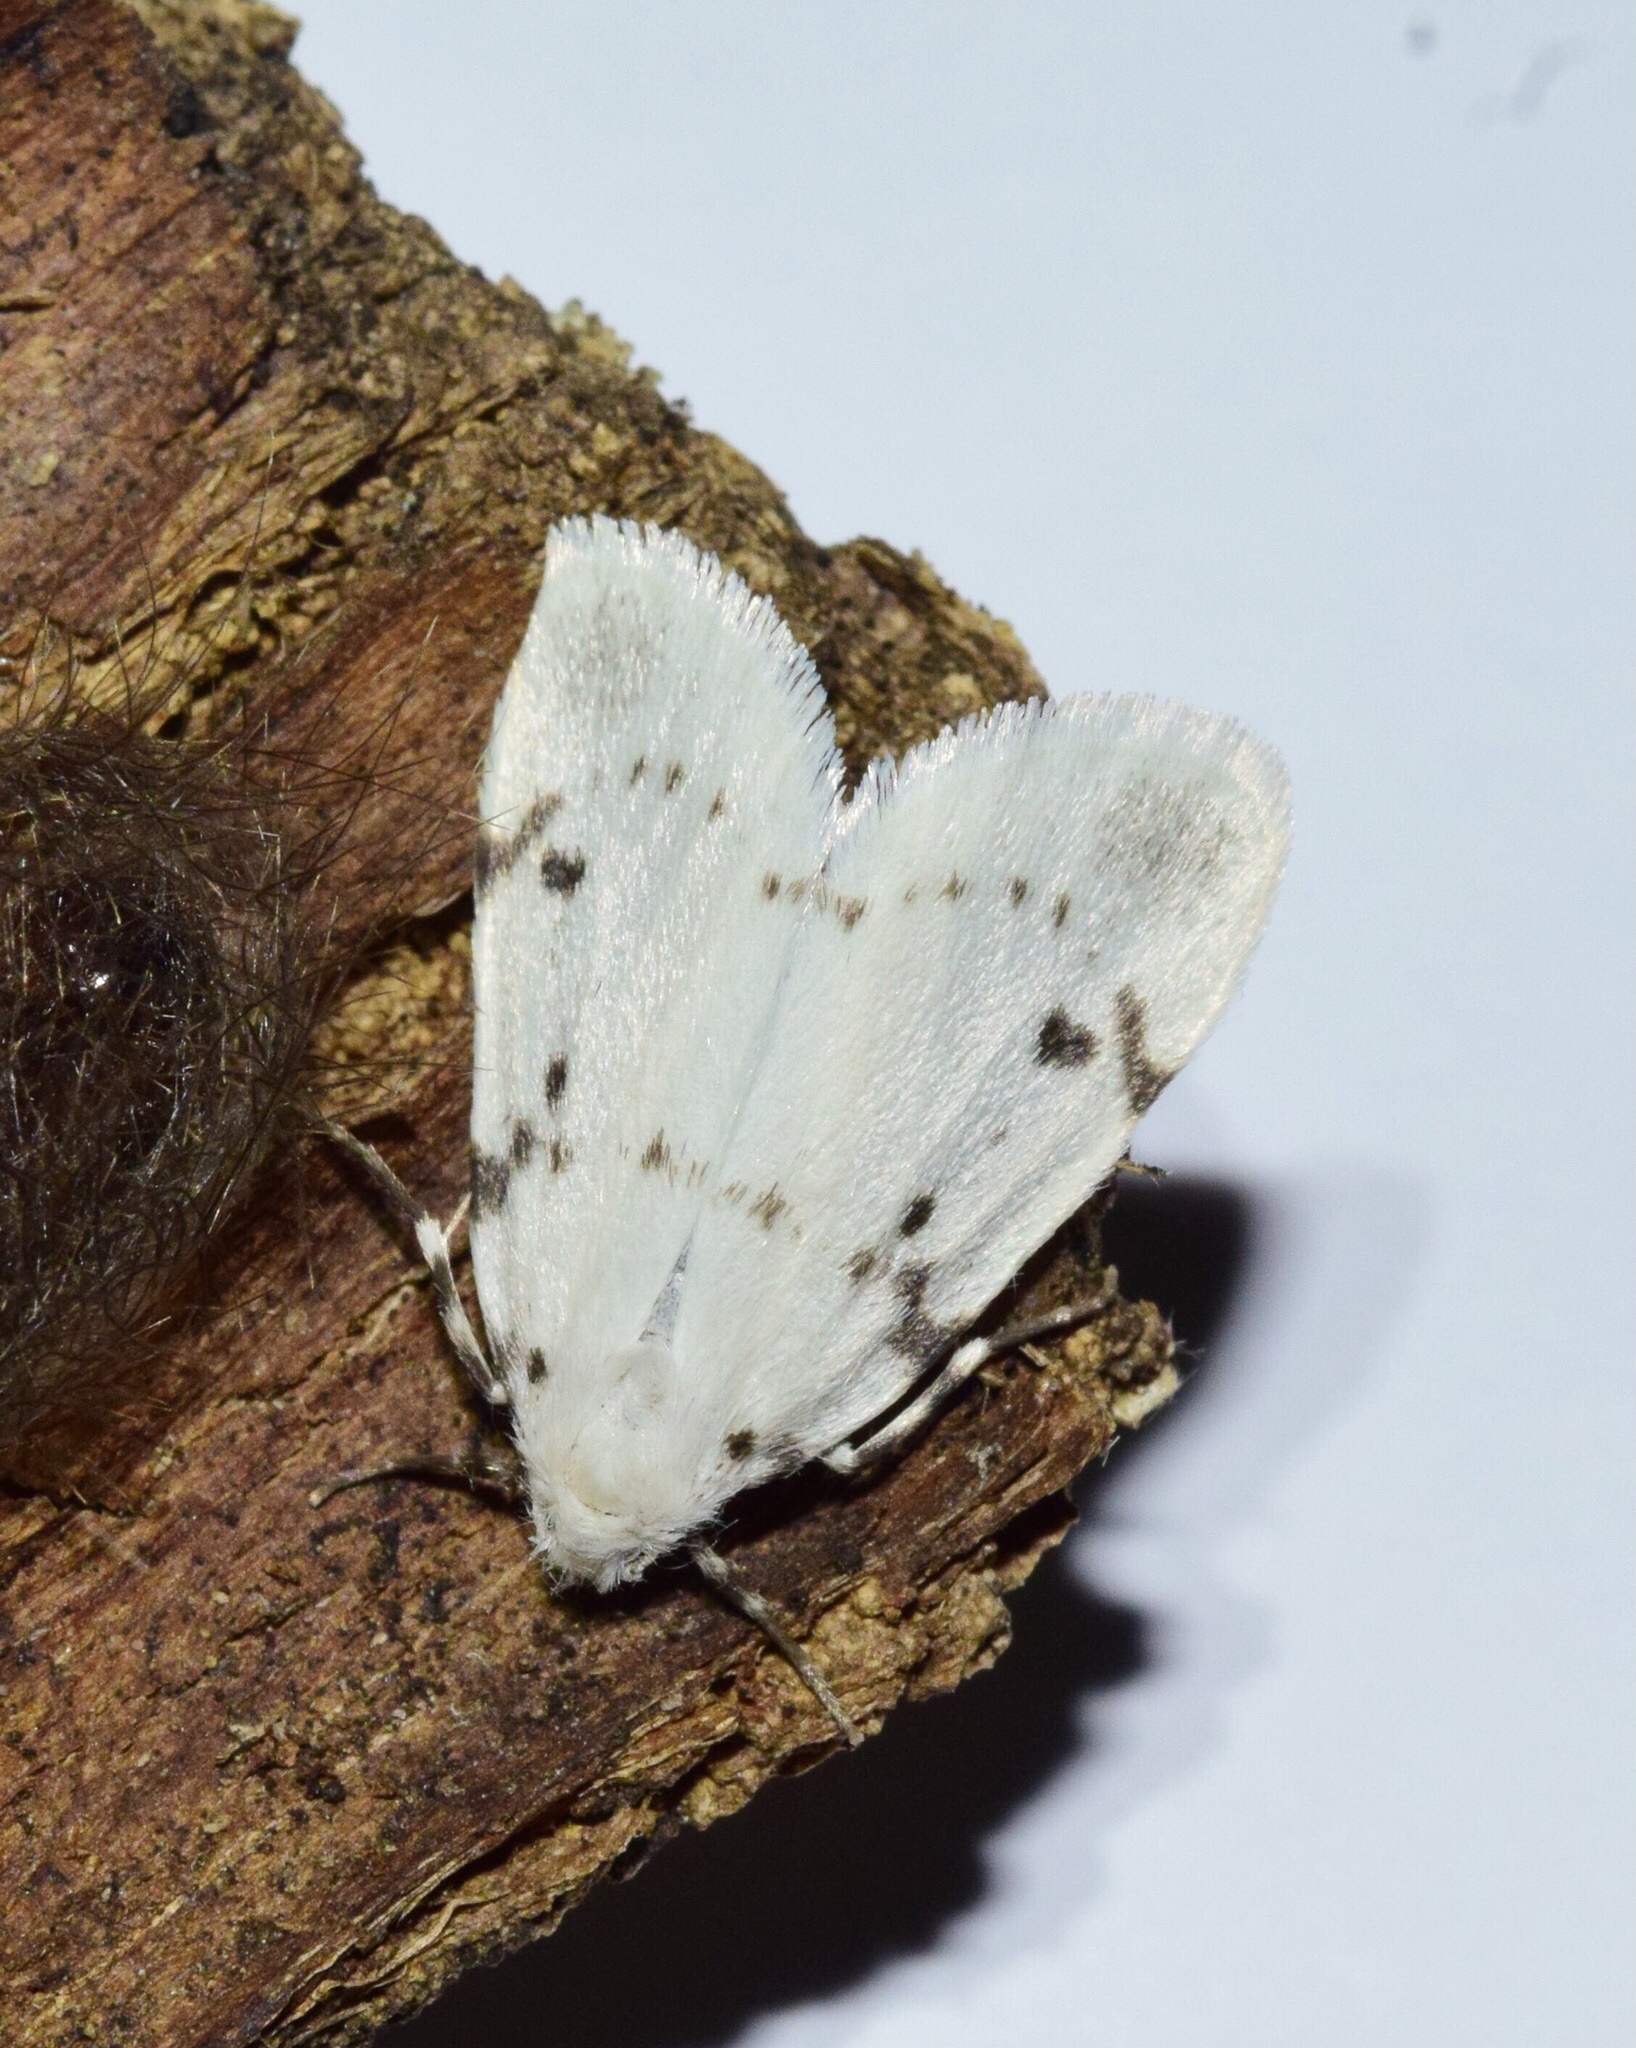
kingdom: Animalia
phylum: Arthropoda
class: Insecta
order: Lepidoptera
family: Erebidae
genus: Cyana
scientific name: Cyana marshalli
